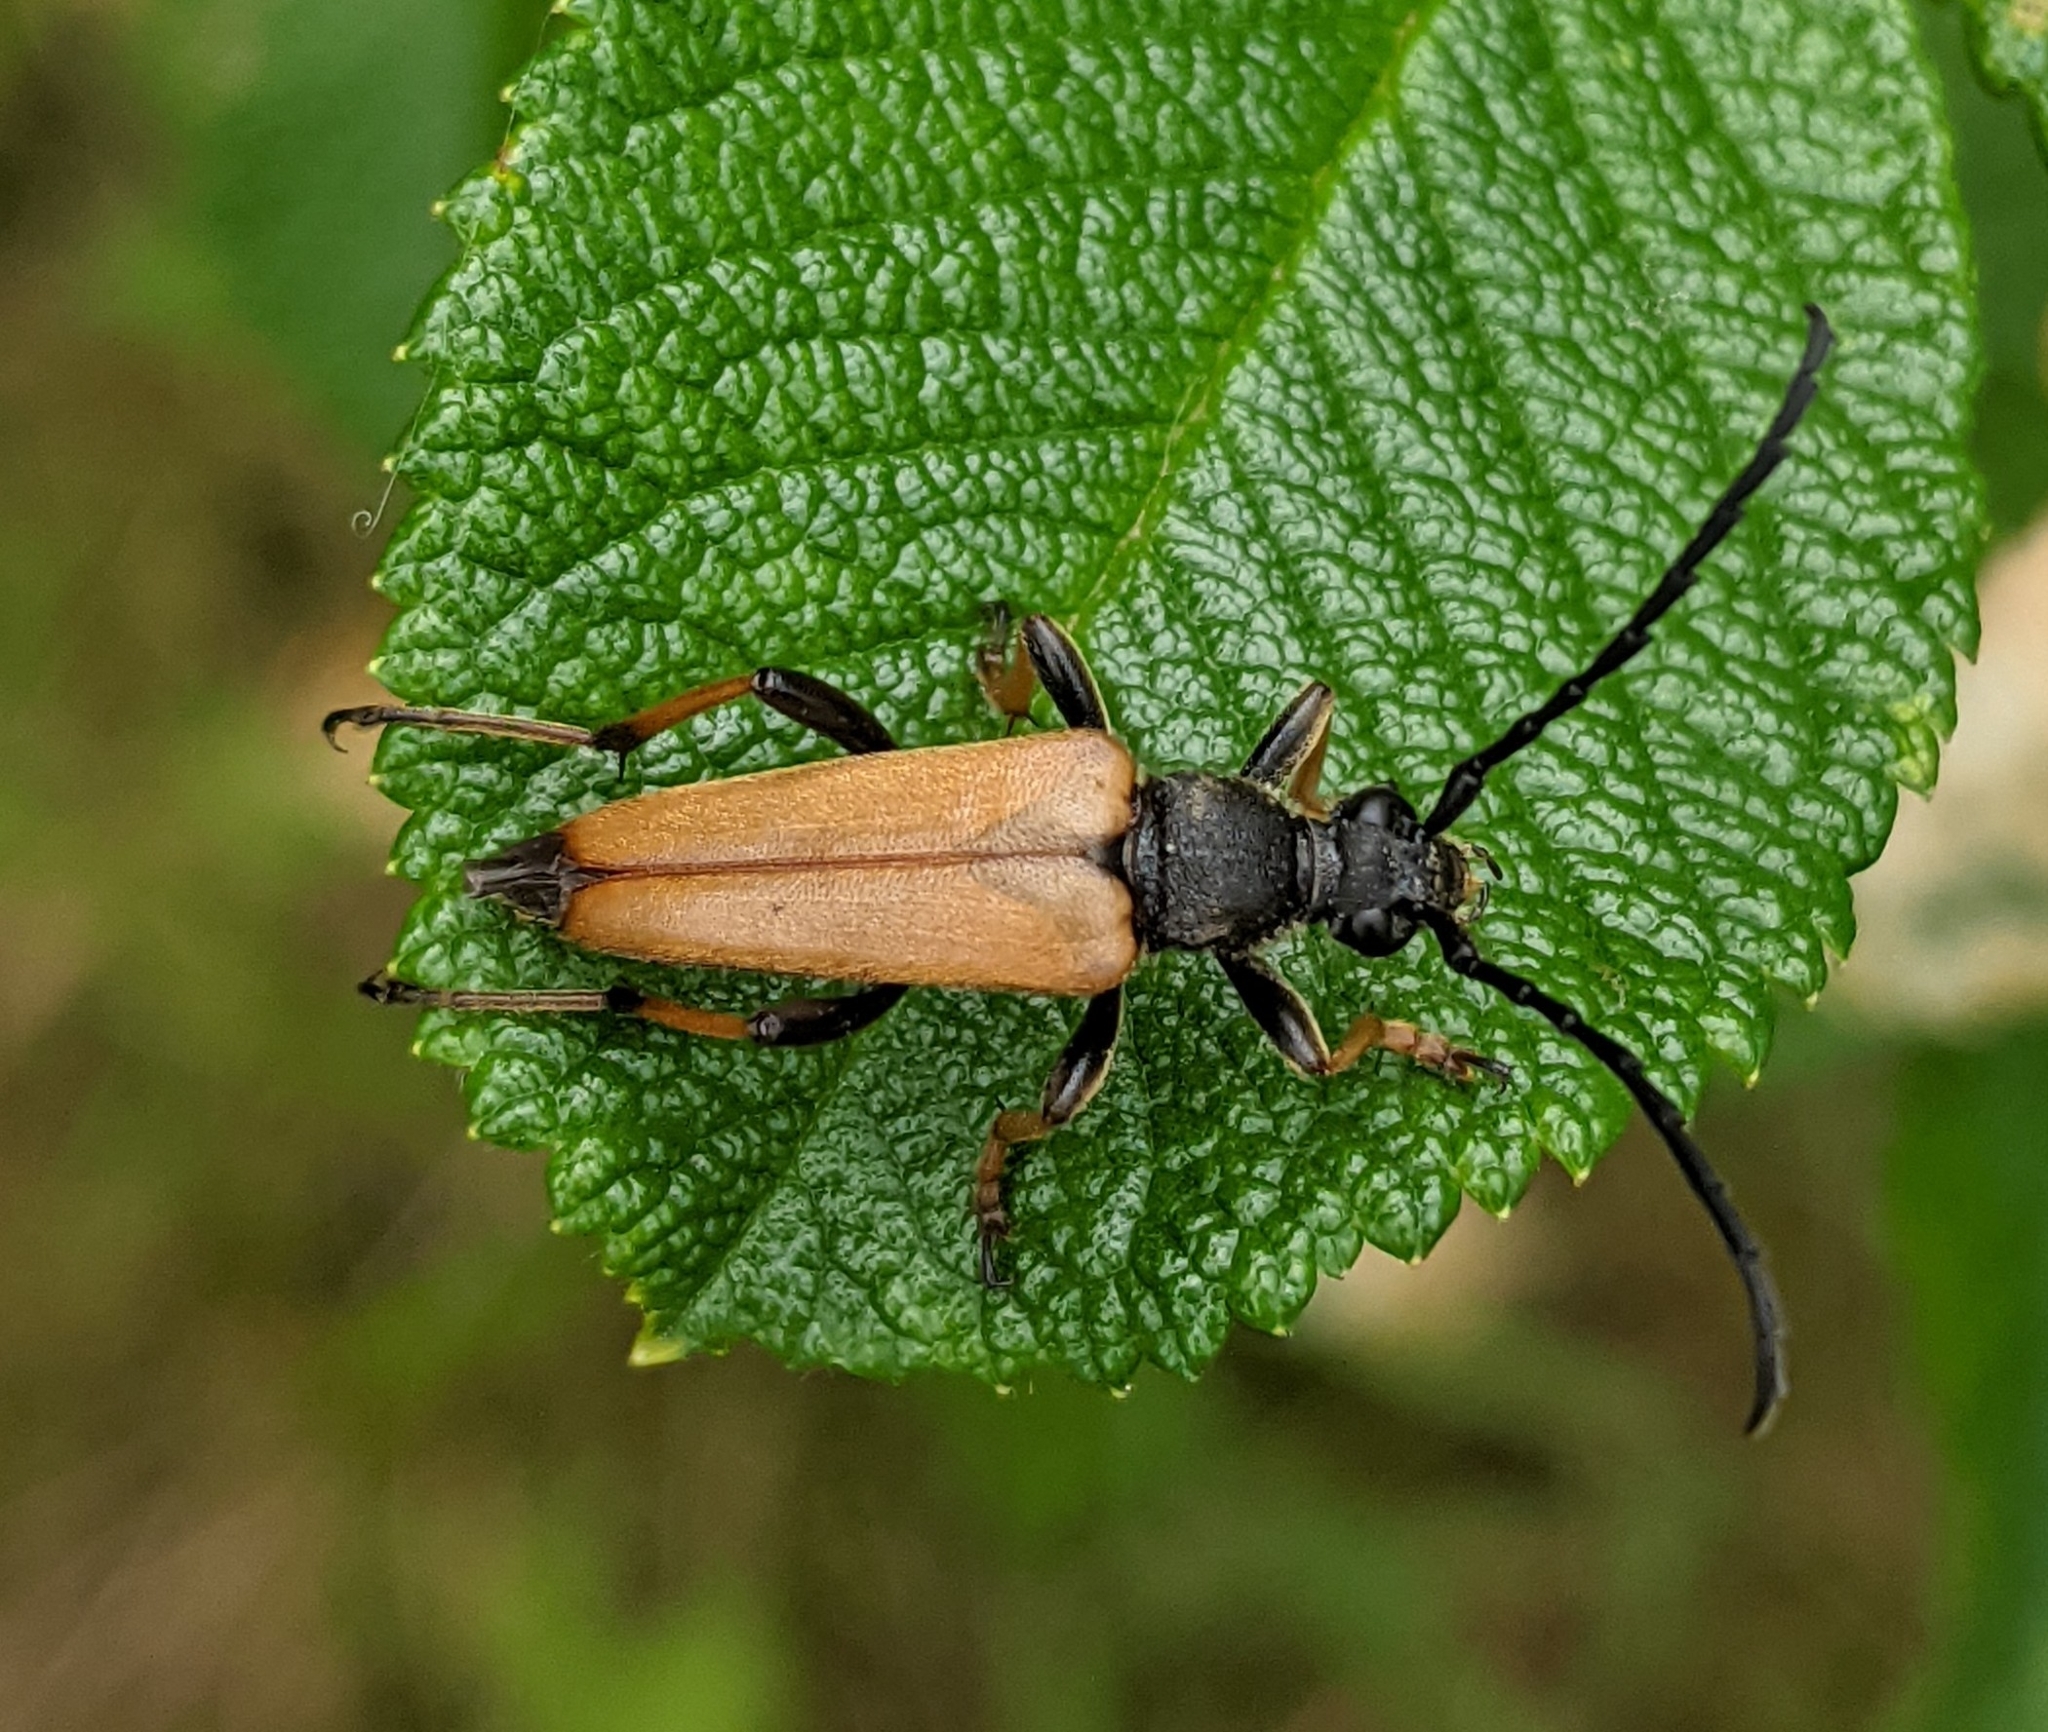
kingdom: Animalia
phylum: Arthropoda
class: Insecta
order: Coleoptera
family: Cerambycidae
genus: Stictoleptura
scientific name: Stictoleptura rubra
